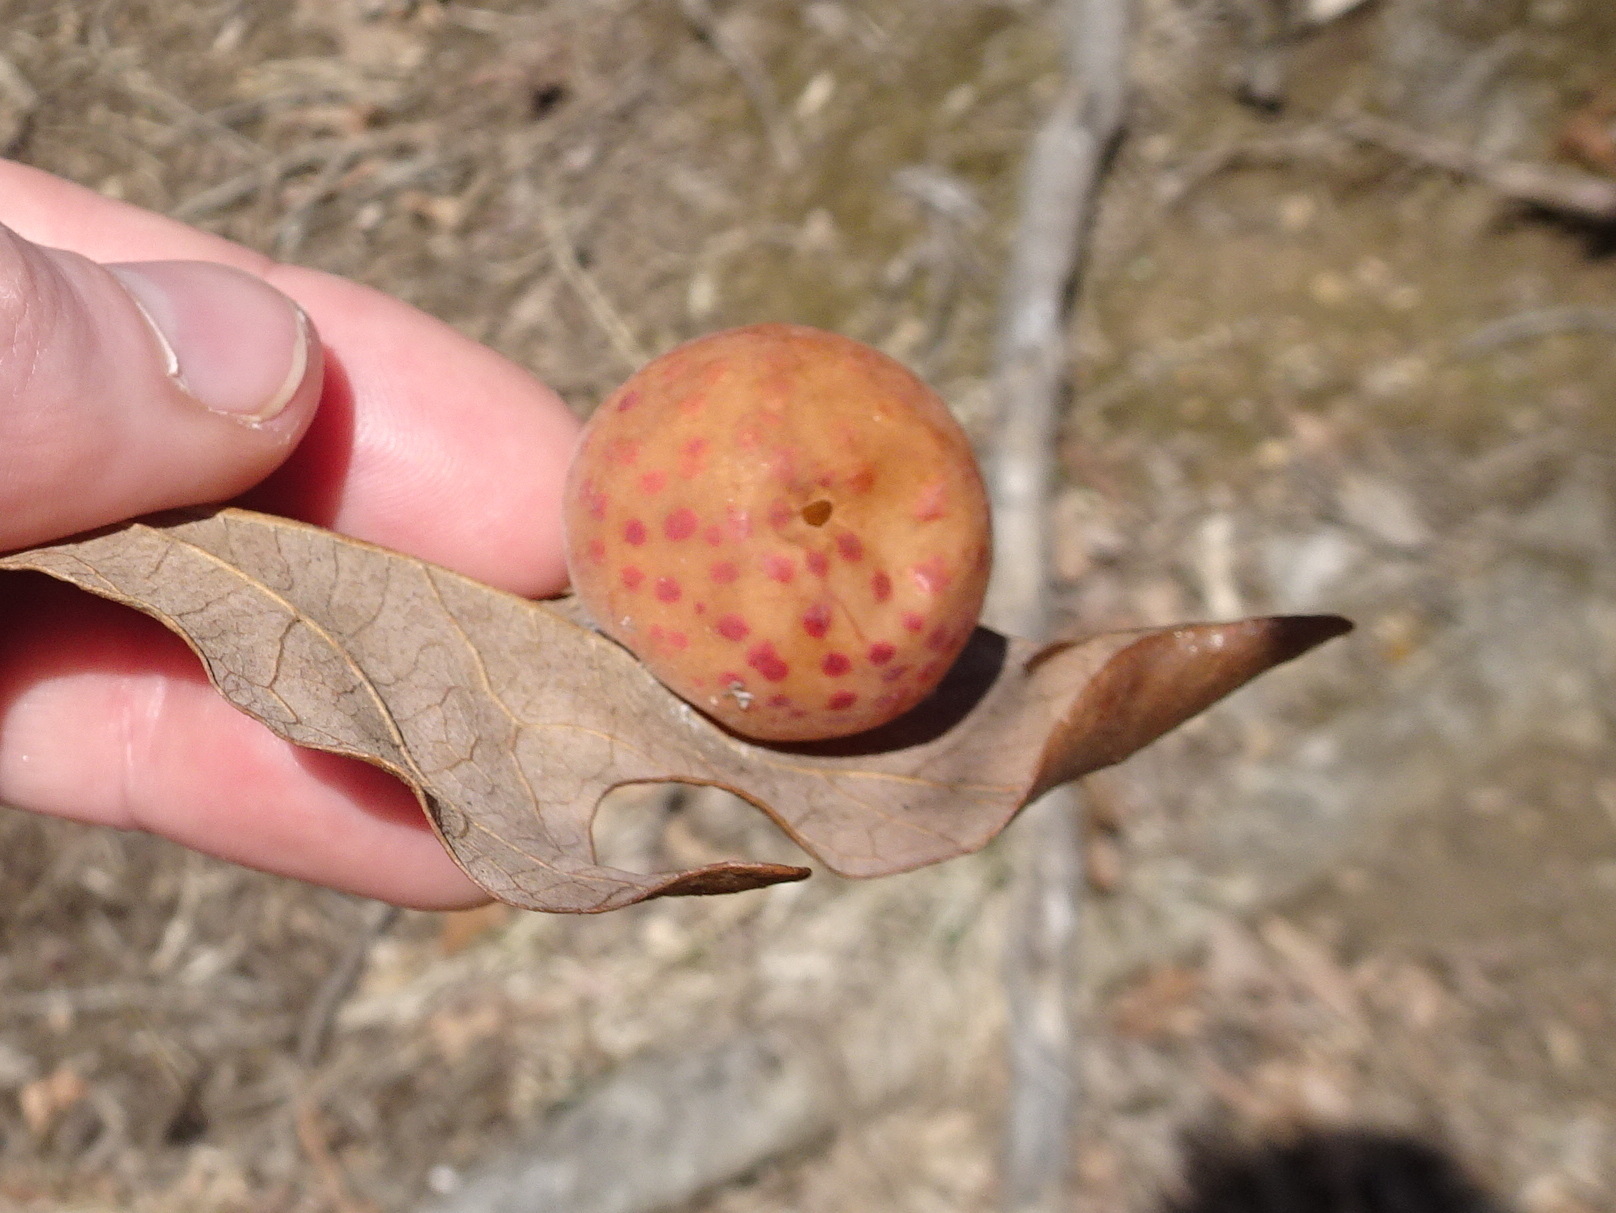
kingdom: Animalia
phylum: Arthropoda
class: Insecta
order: Hymenoptera
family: Cynipidae
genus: Atrusca
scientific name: Atrusca
